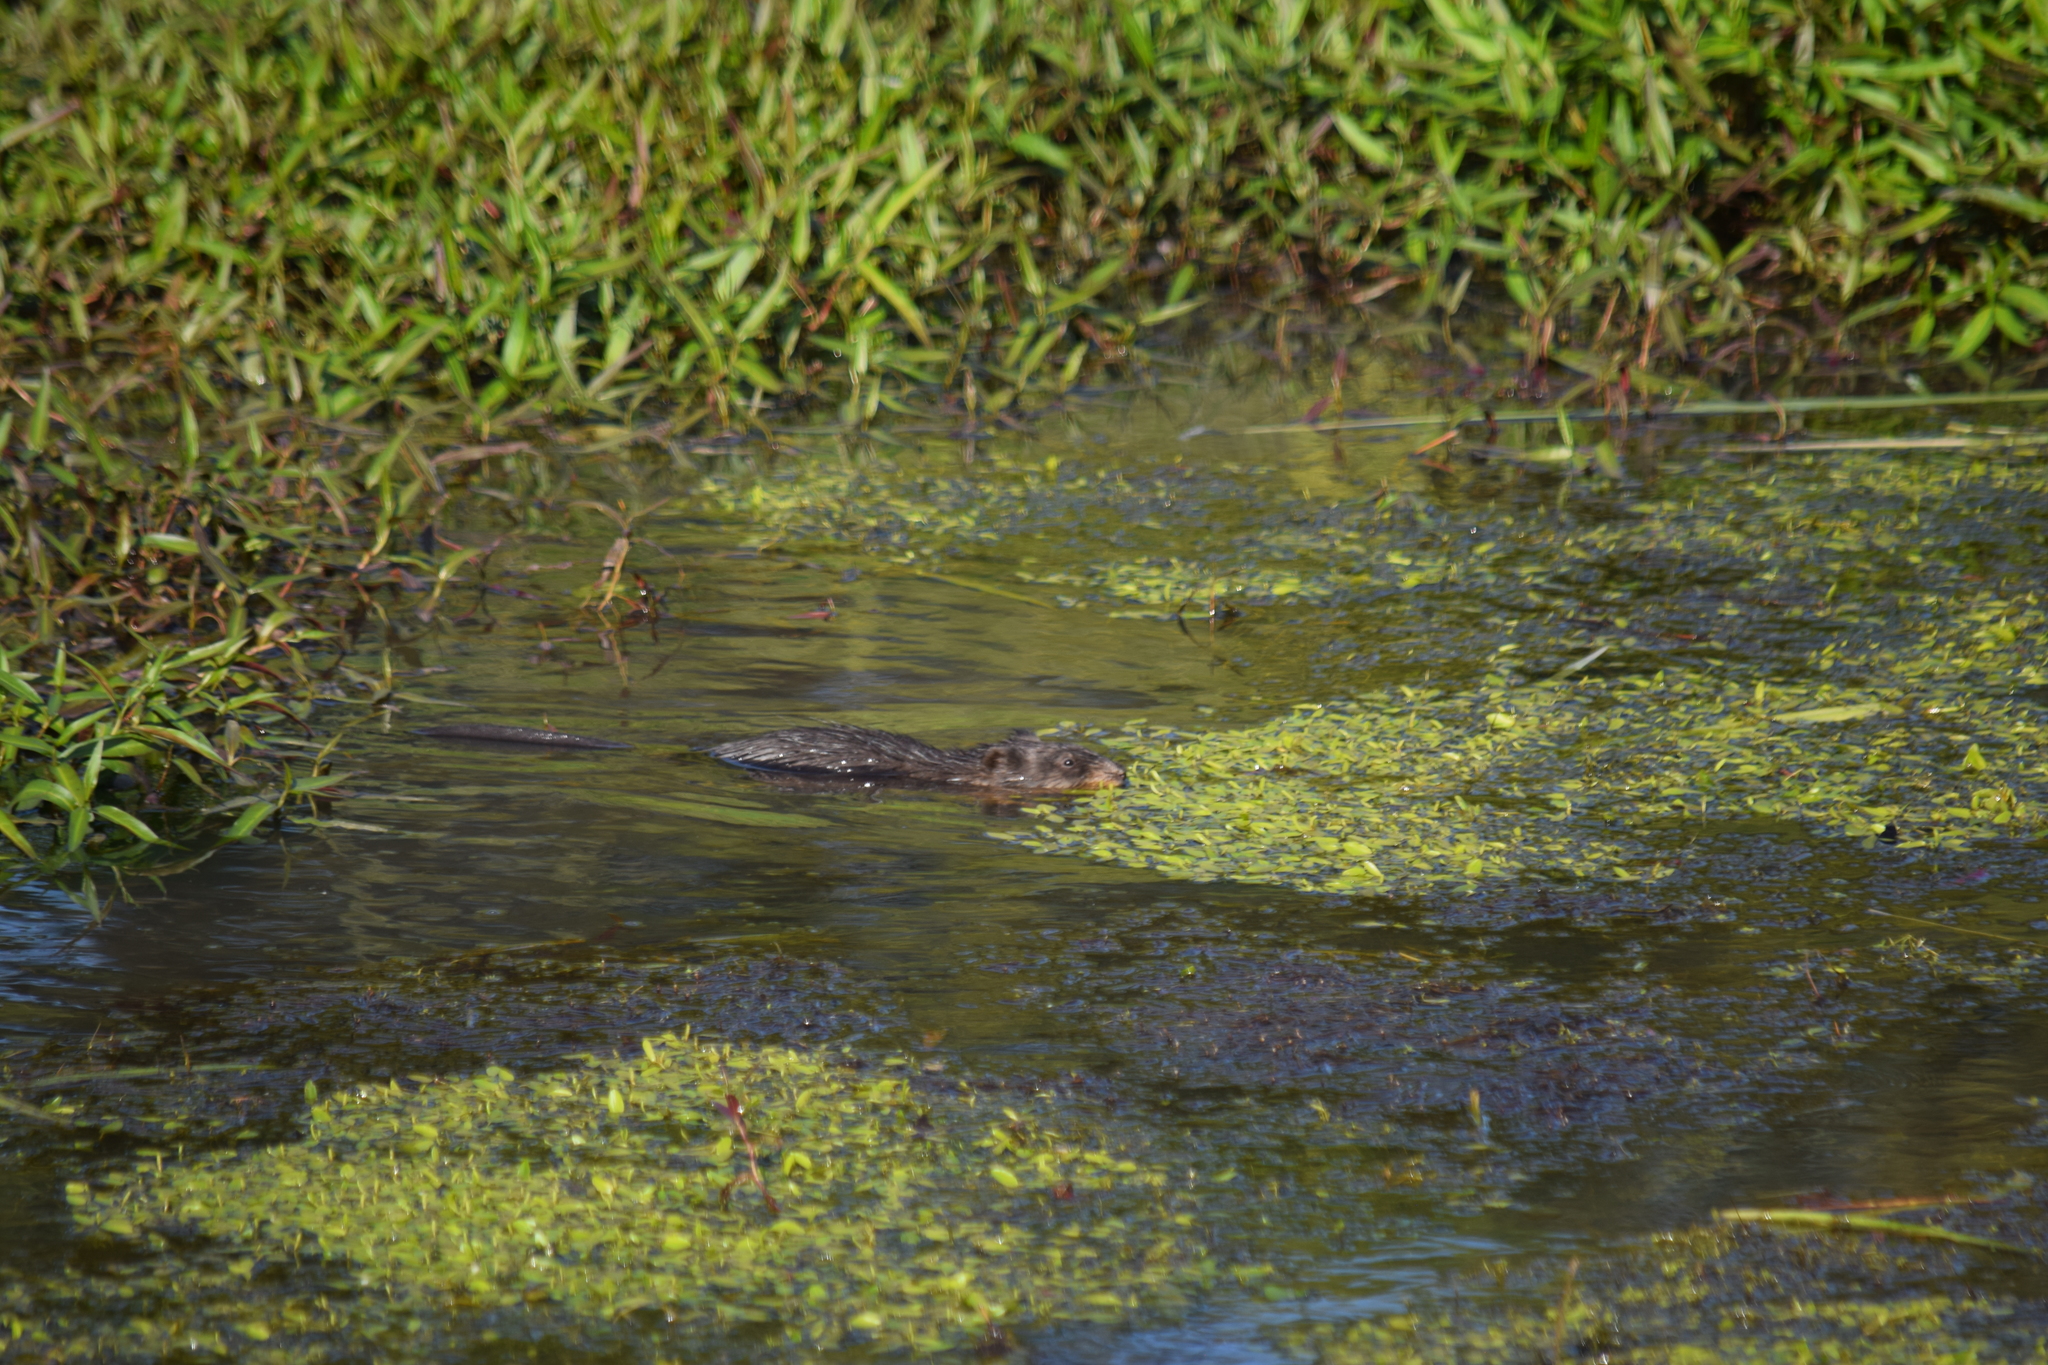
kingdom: Animalia
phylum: Chordata
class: Mammalia
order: Rodentia
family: Cricetidae
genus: Ondatra
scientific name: Ondatra zibethicus
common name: Muskrat
